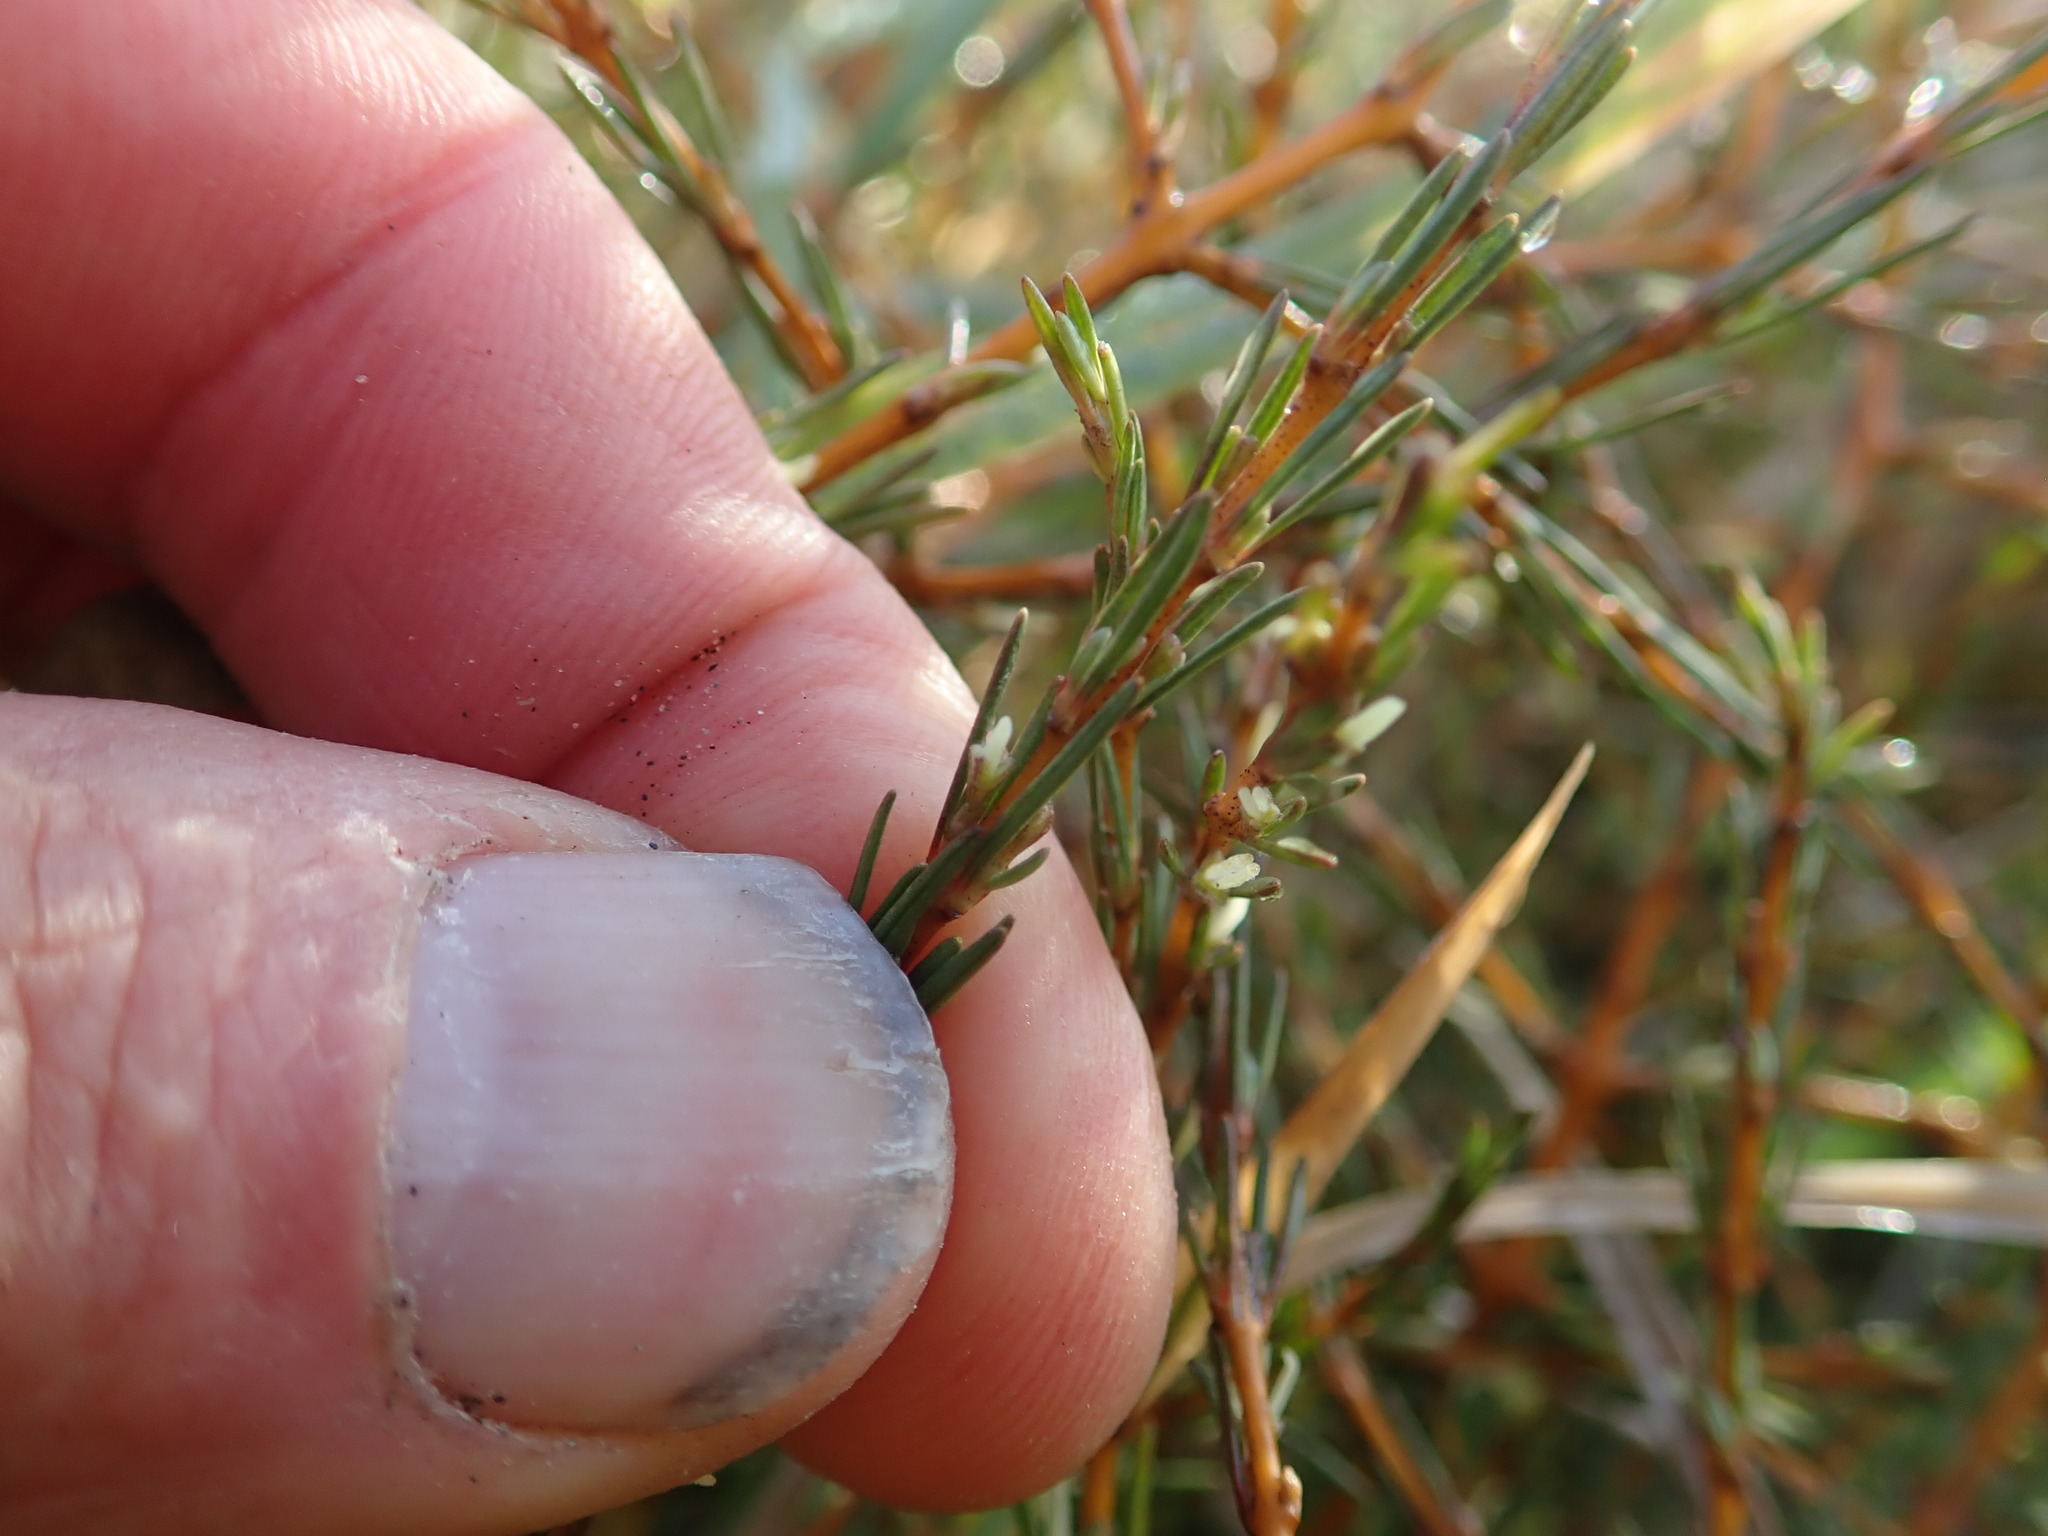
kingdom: Plantae
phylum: Tracheophyta
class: Magnoliopsida
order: Gentianales
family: Rubiaceae
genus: Coprosma
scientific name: Coprosma acerosa
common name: Sand coprosma
